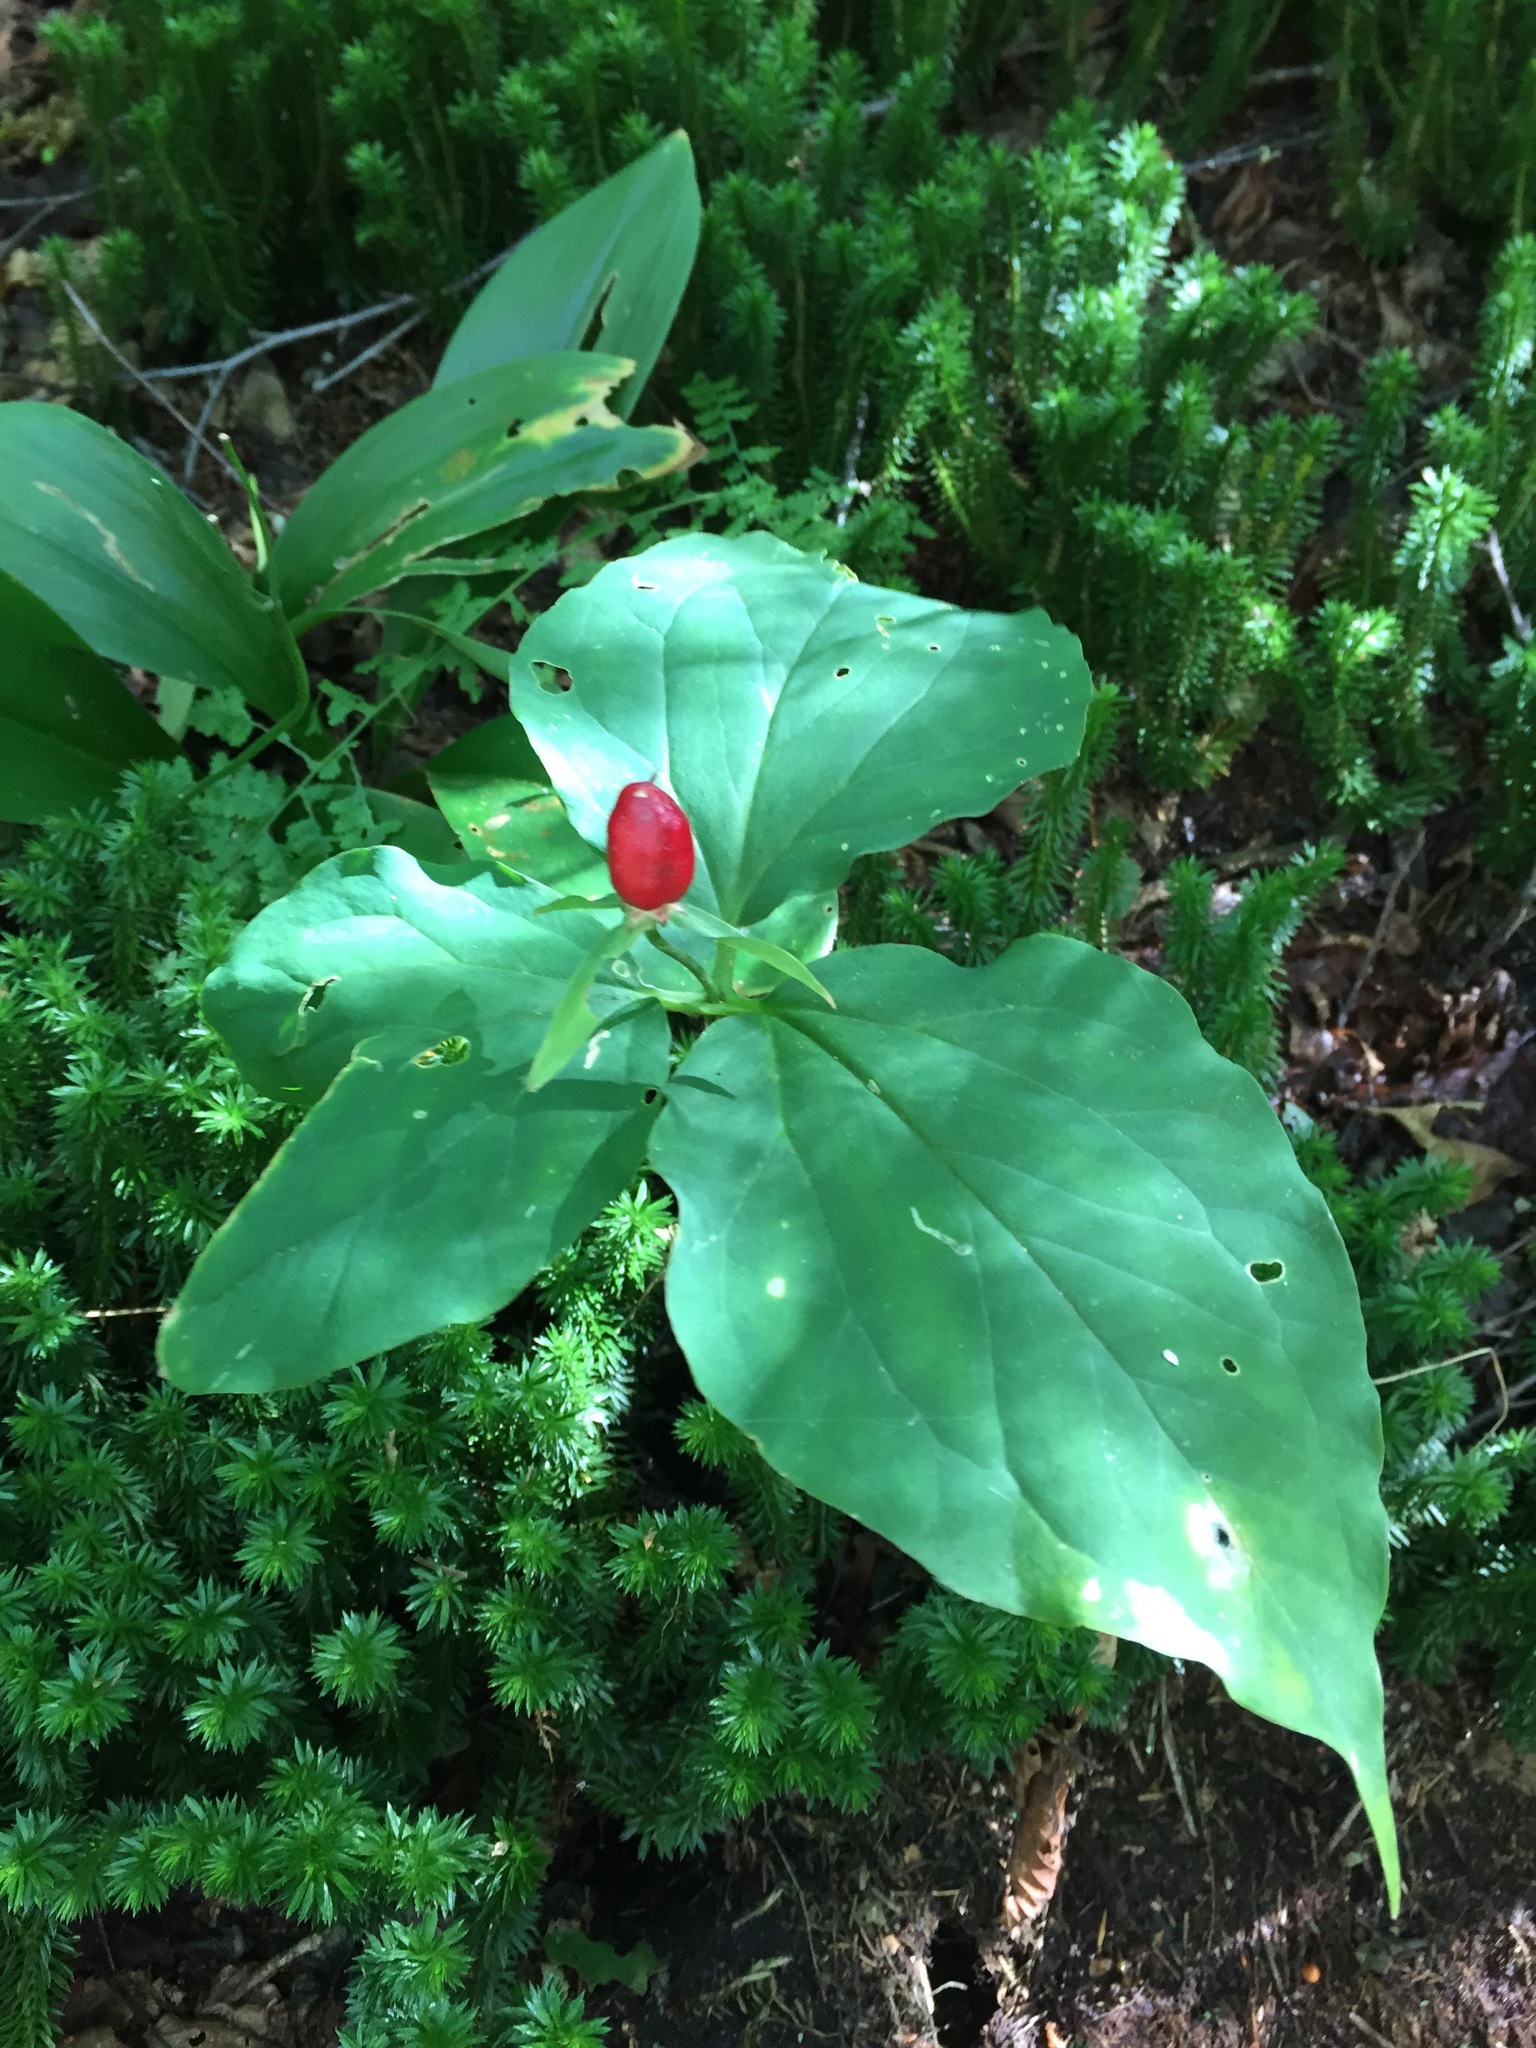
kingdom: Plantae
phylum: Tracheophyta
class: Liliopsida
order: Liliales
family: Melanthiaceae
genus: Trillium
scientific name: Trillium undulatum
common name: Paint trillium
